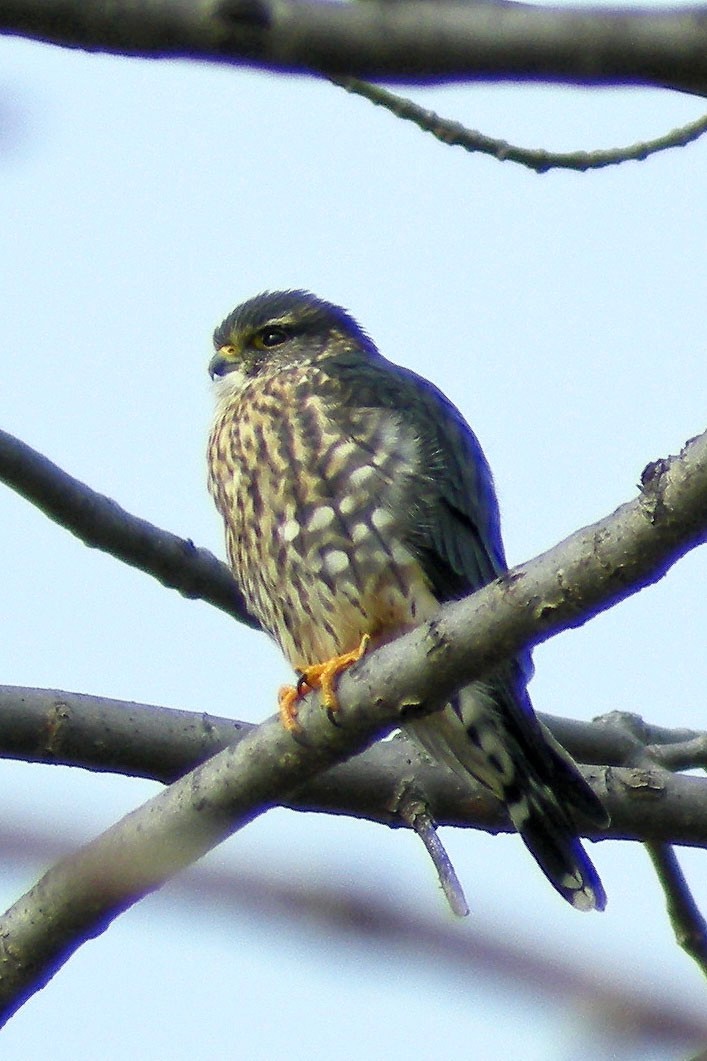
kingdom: Animalia
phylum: Chordata
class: Aves
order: Falconiformes
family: Falconidae
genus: Falco
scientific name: Falco columbarius
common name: Merlin
